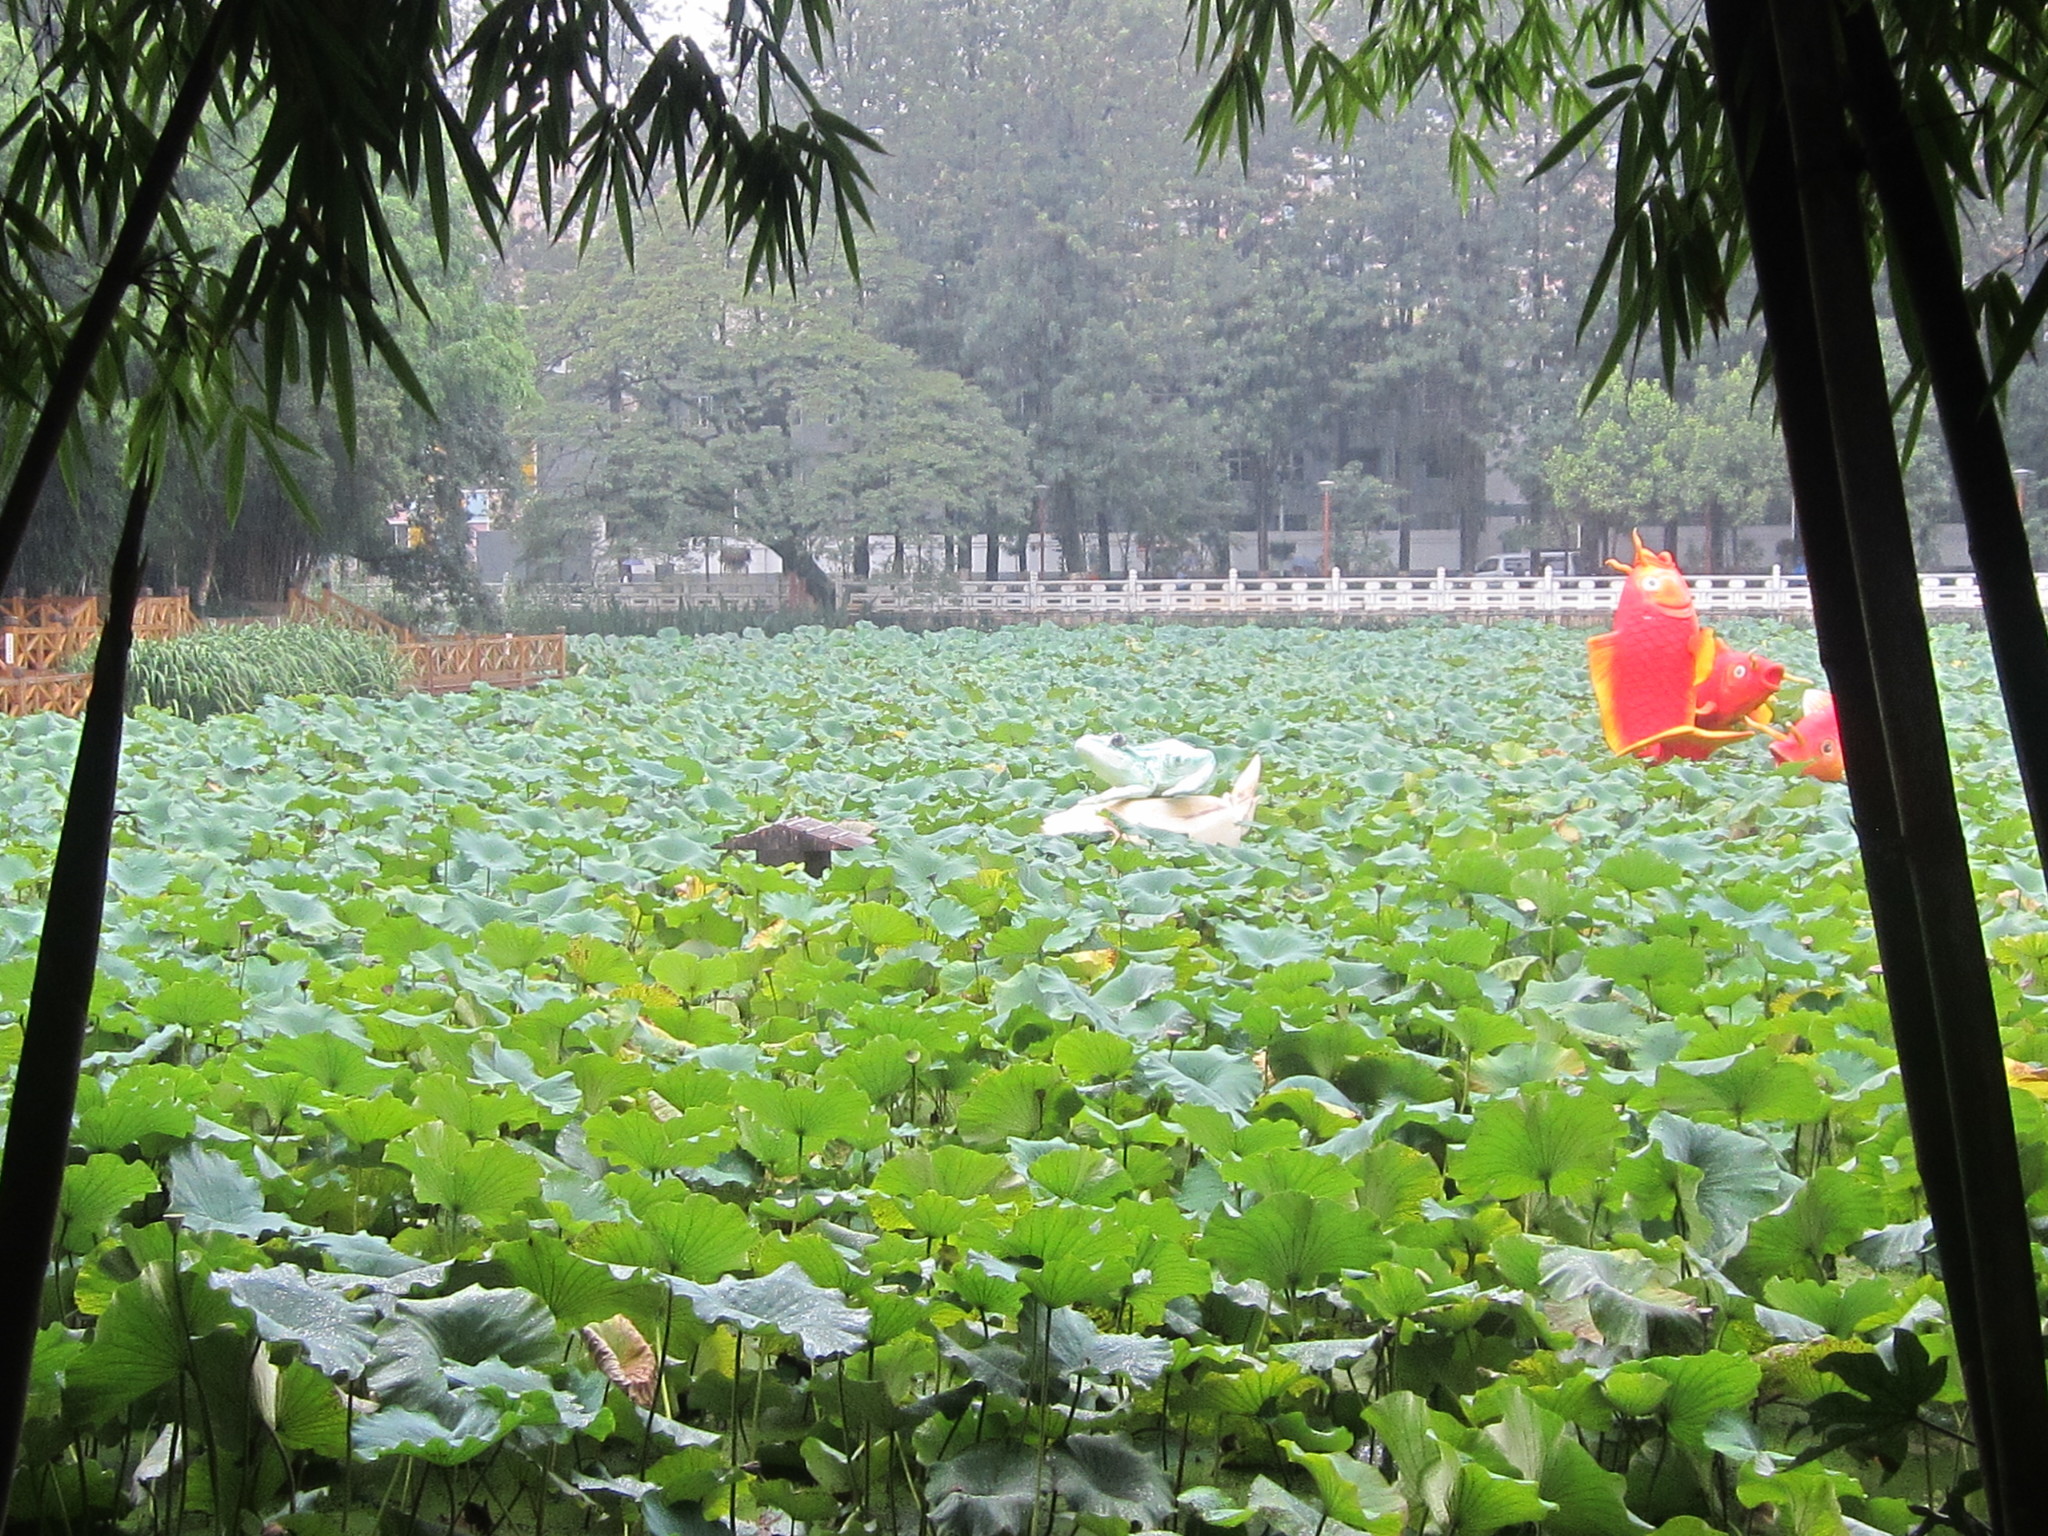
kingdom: Plantae
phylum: Tracheophyta
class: Magnoliopsida
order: Proteales
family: Nelumbonaceae
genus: Nelumbo
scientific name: Nelumbo nucifera
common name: Sacred lotus
